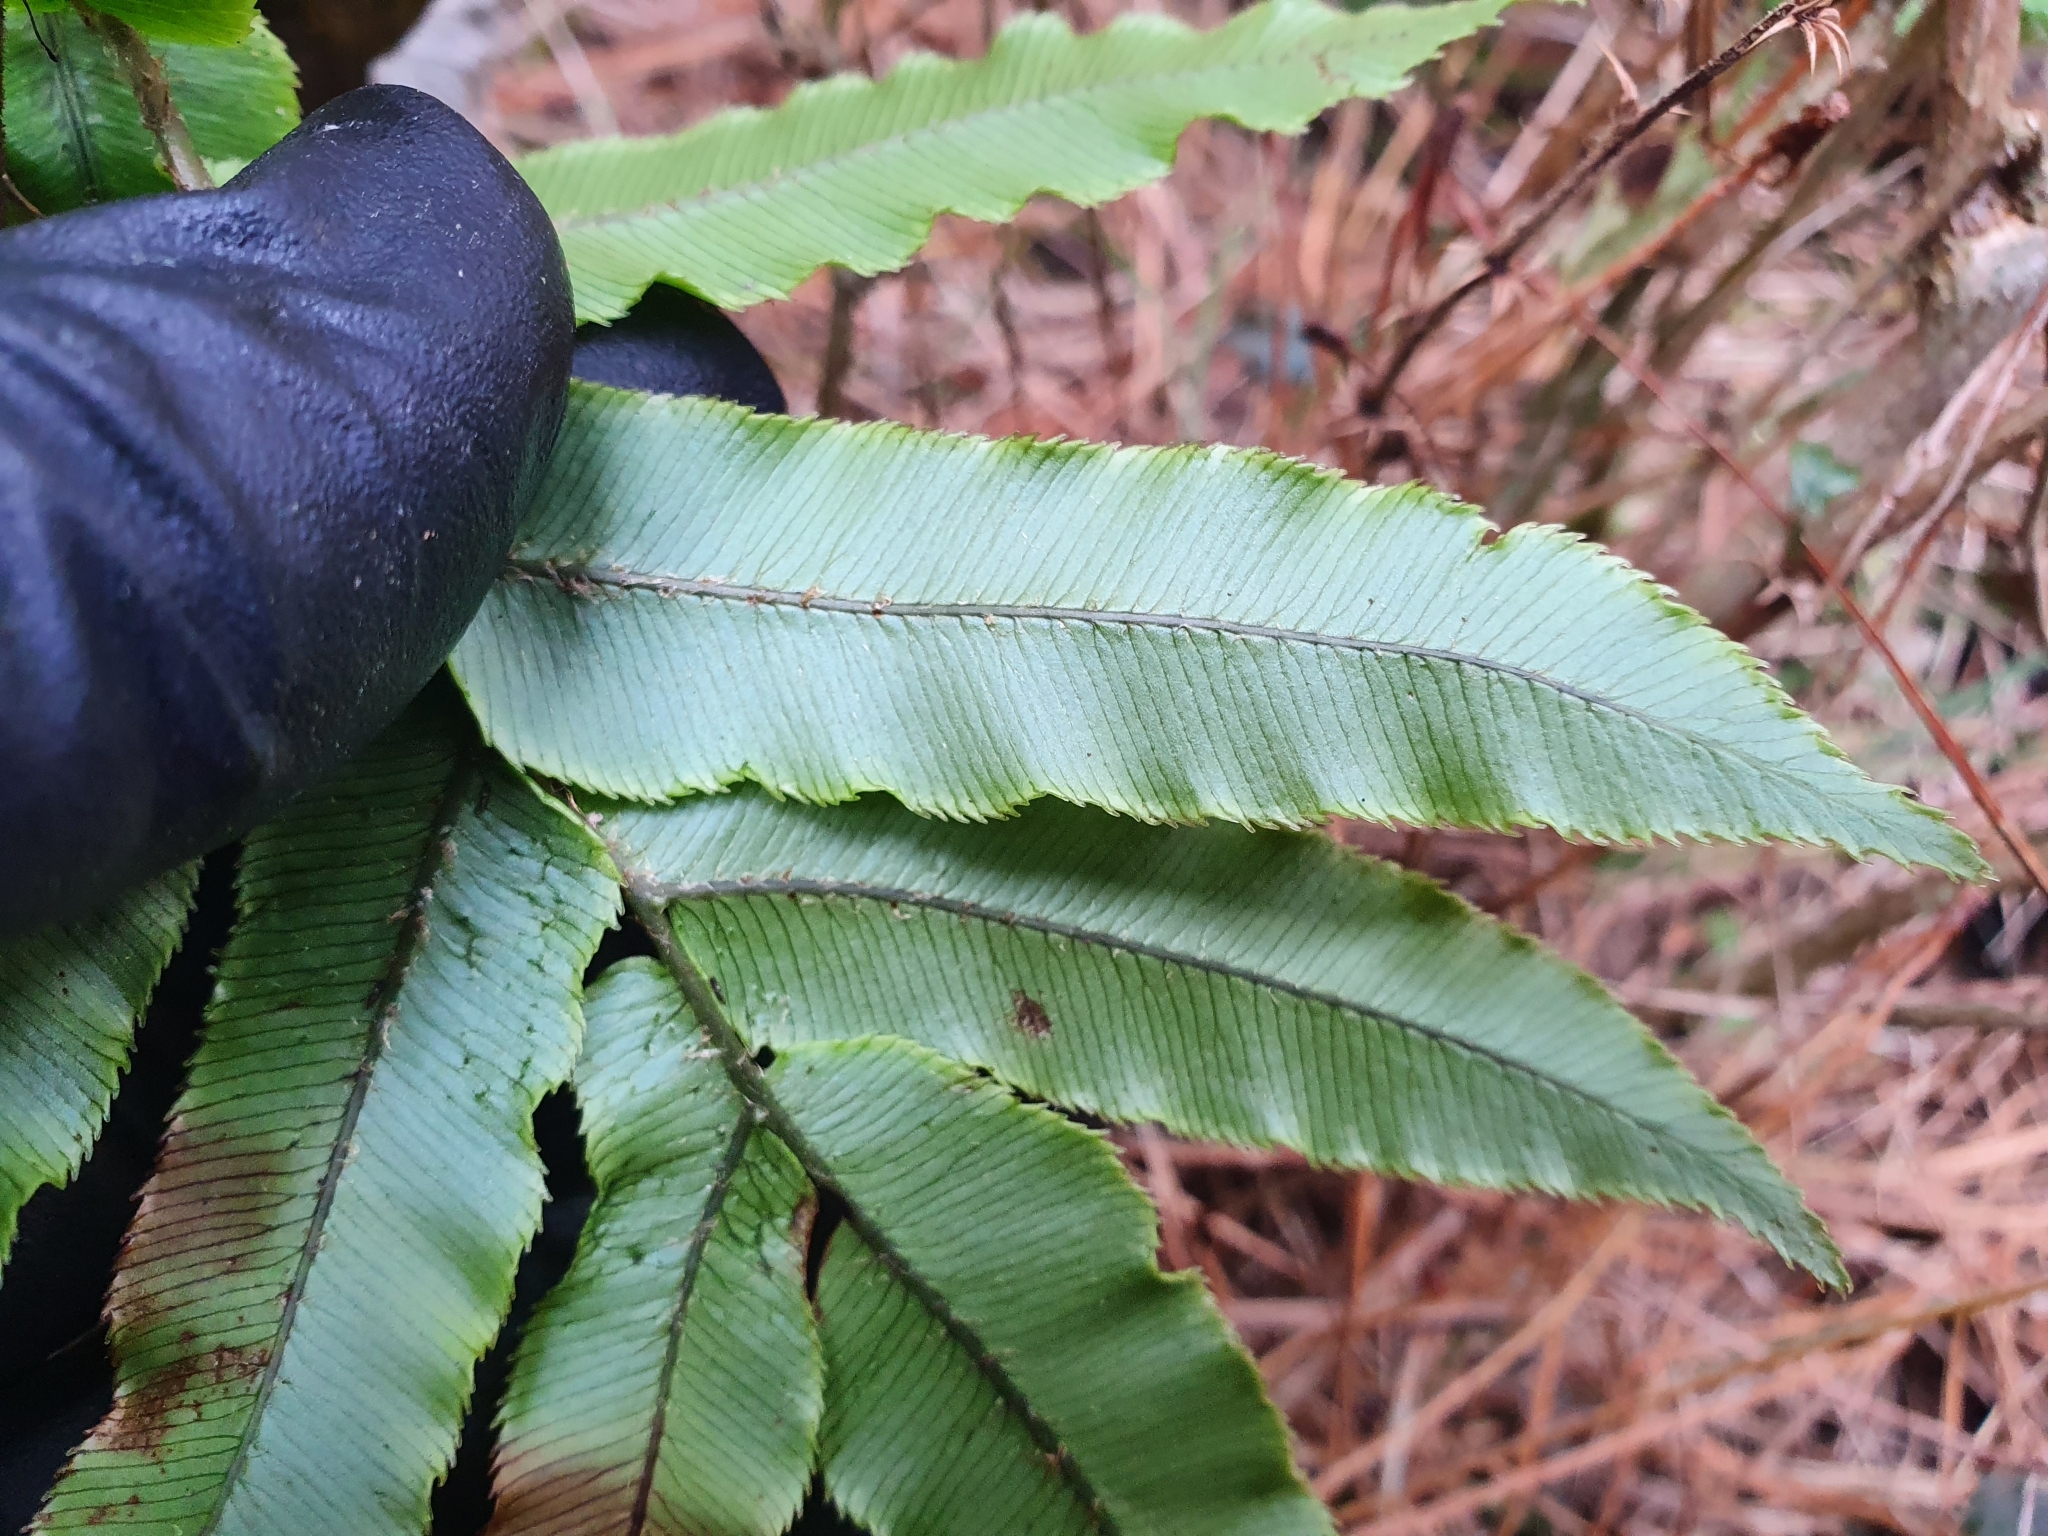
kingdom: Plantae
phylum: Tracheophyta
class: Polypodiopsida
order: Polypodiales
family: Blechnaceae
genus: Parablechnum
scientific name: Parablechnum procerum
